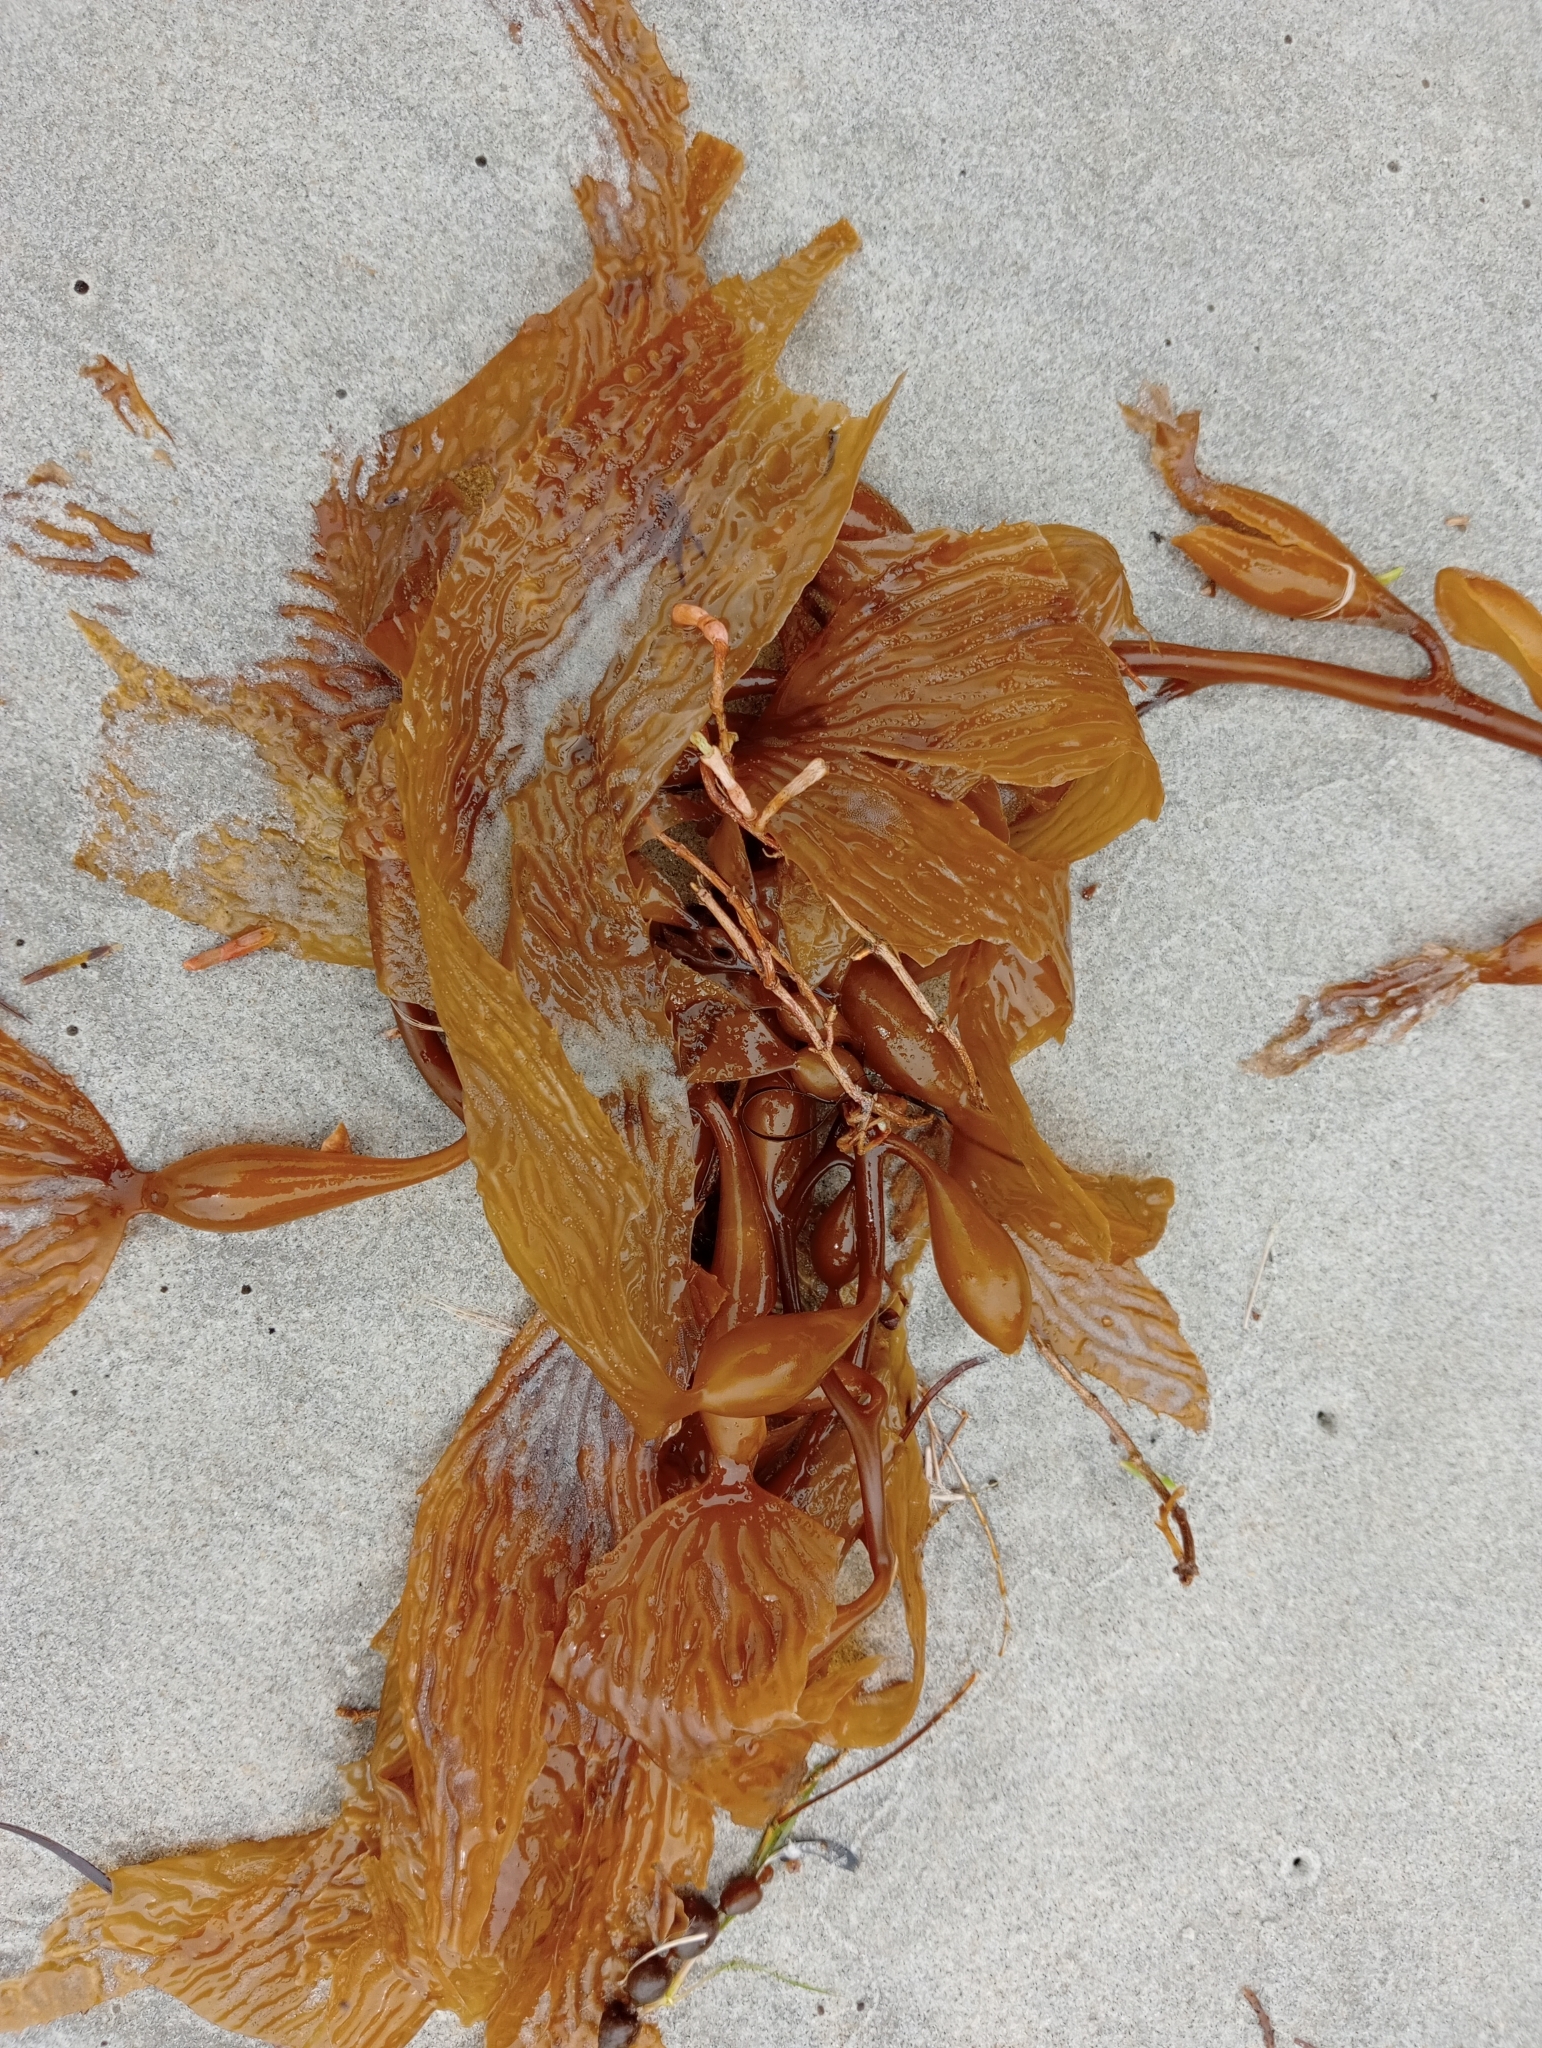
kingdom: Chromista
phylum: Ochrophyta
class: Phaeophyceae
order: Laminariales
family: Laminariaceae
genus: Macrocystis
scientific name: Macrocystis pyrifera
